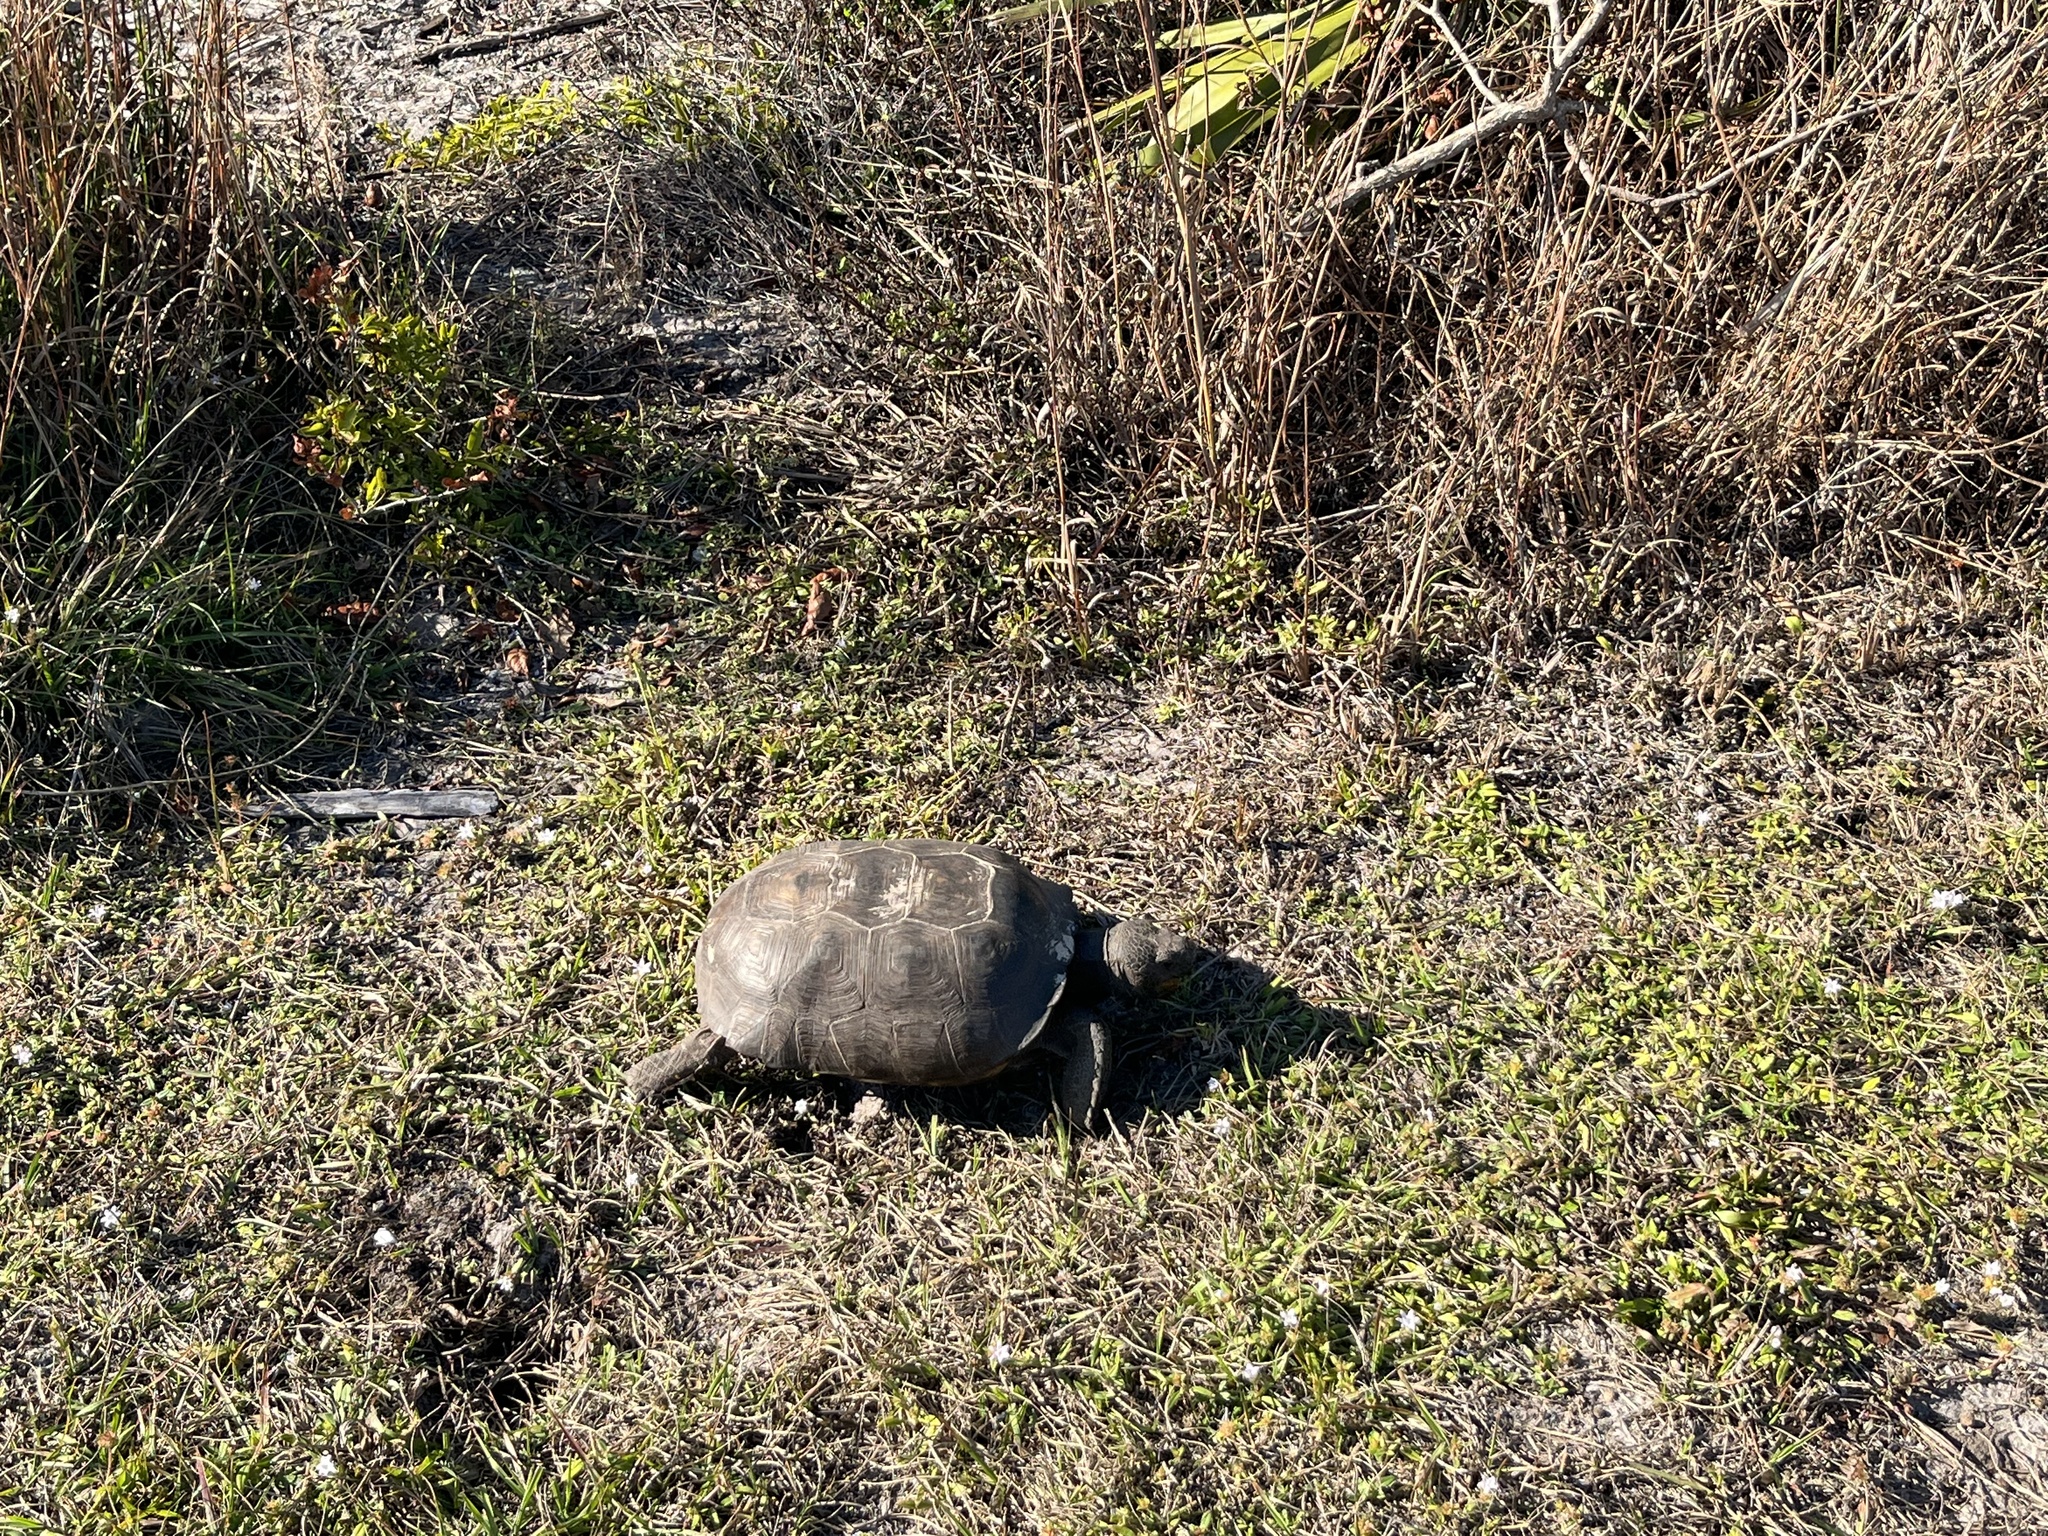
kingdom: Animalia
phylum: Chordata
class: Testudines
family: Testudinidae
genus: Gopherus
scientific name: Gopherus polyphemus
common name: Florida gopher tortoise
